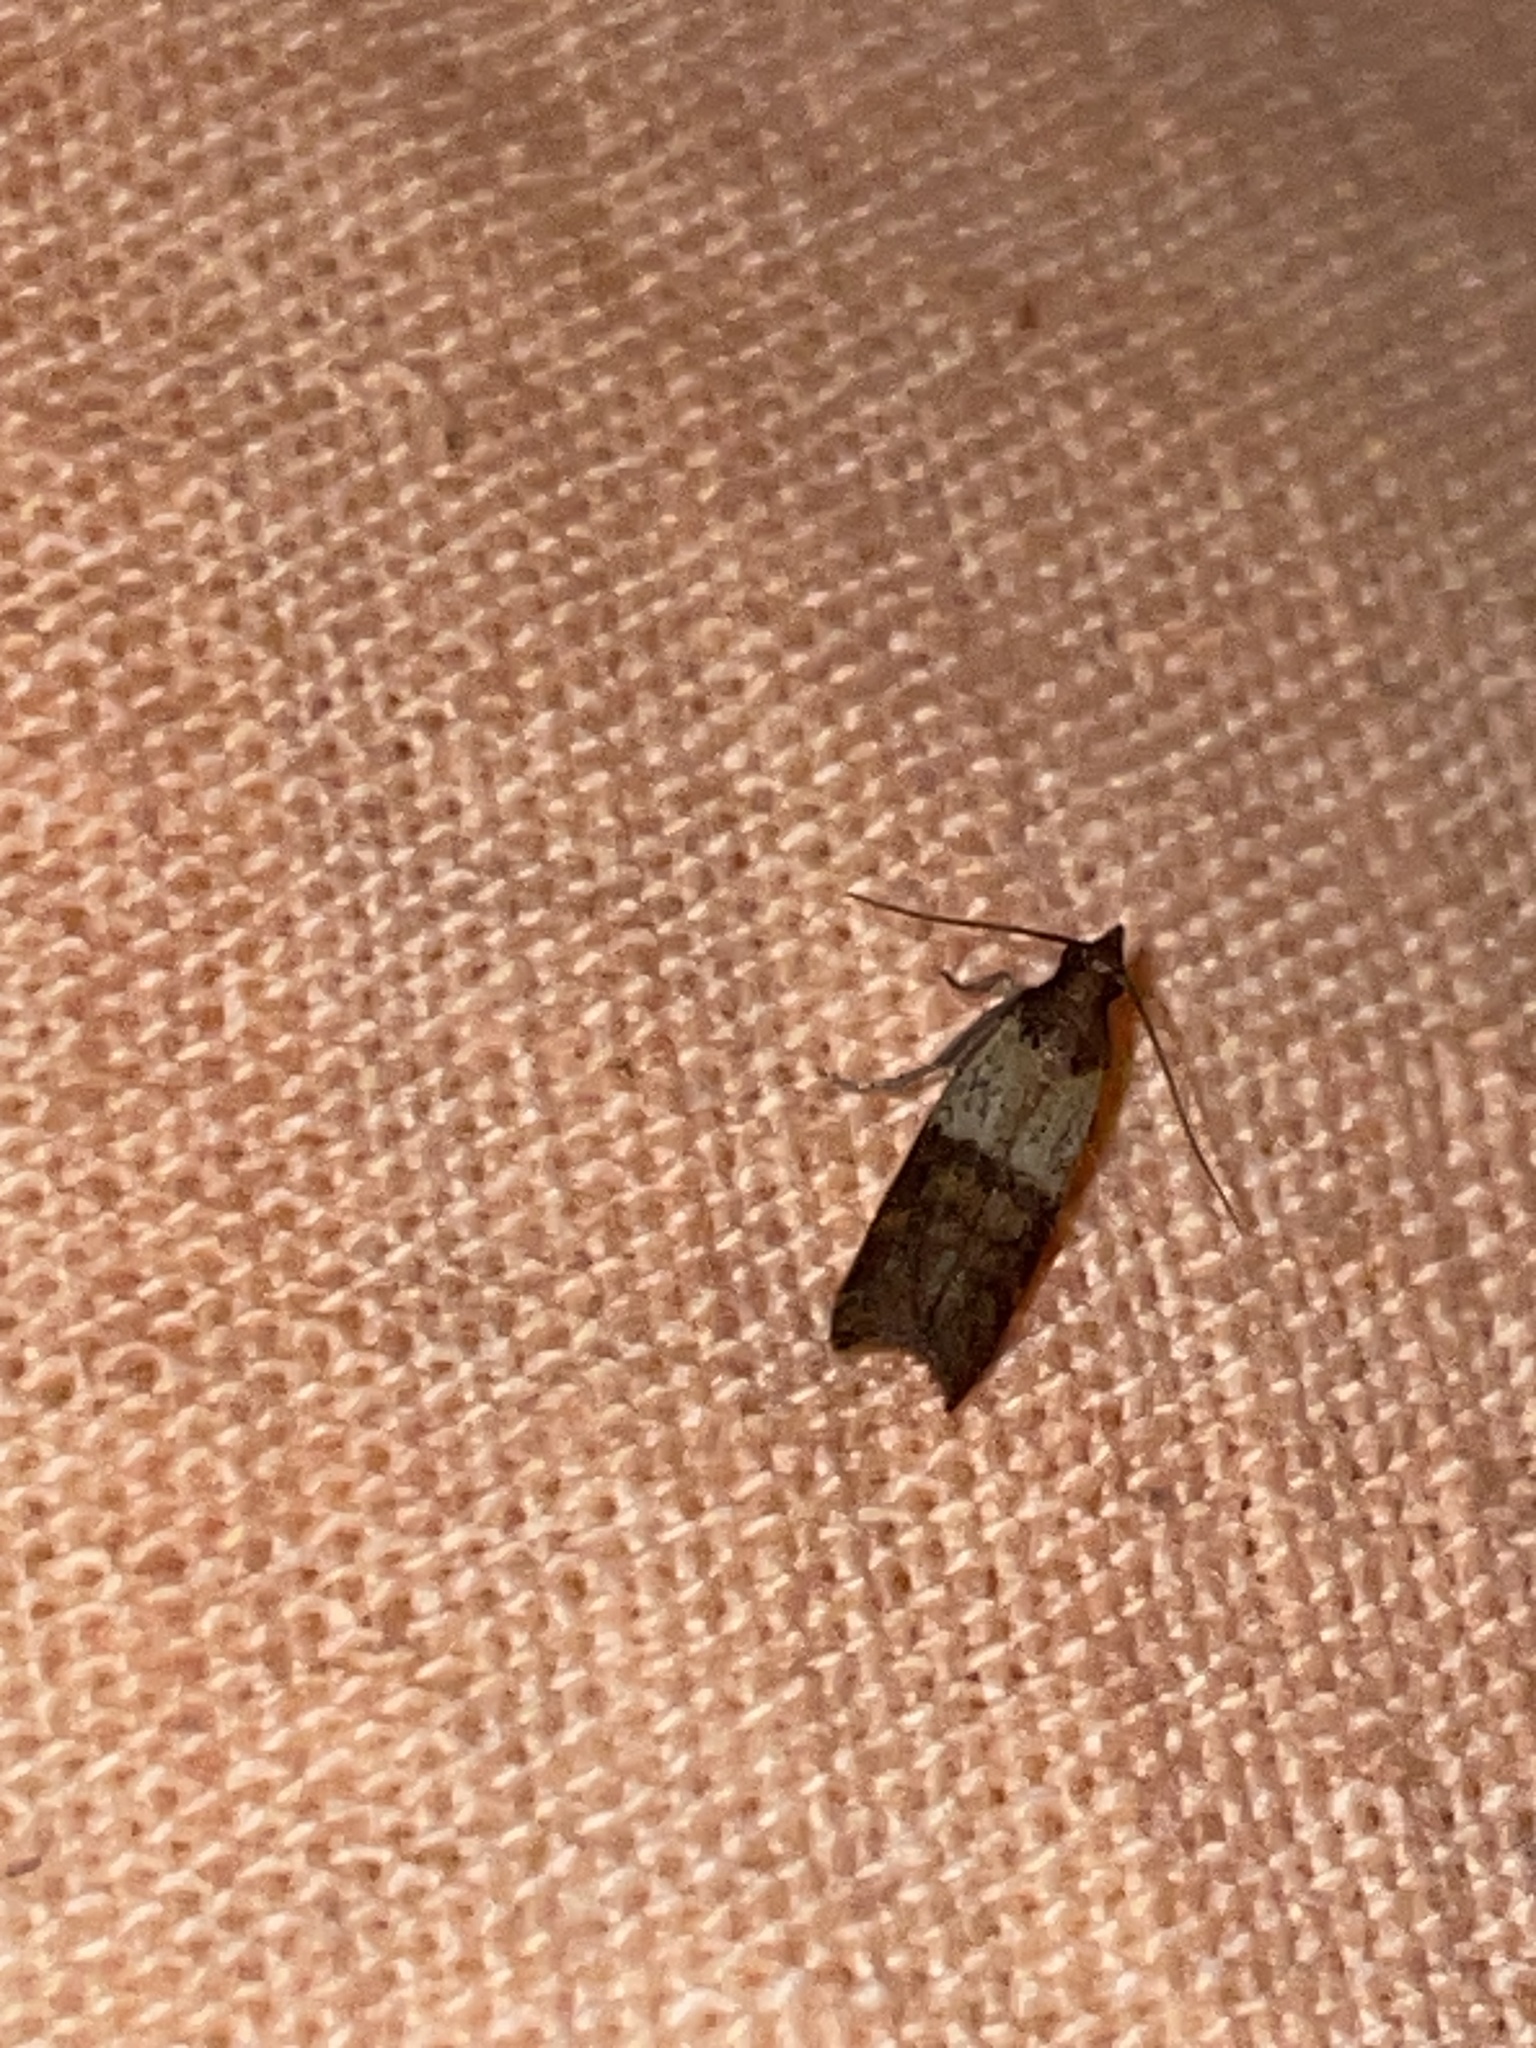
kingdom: Animalia
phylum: Arthropoda
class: Insecta
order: Lepidoptera
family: Pyralidae
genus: Plodia
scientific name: Plodia interpunctella
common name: Indian meal moth
